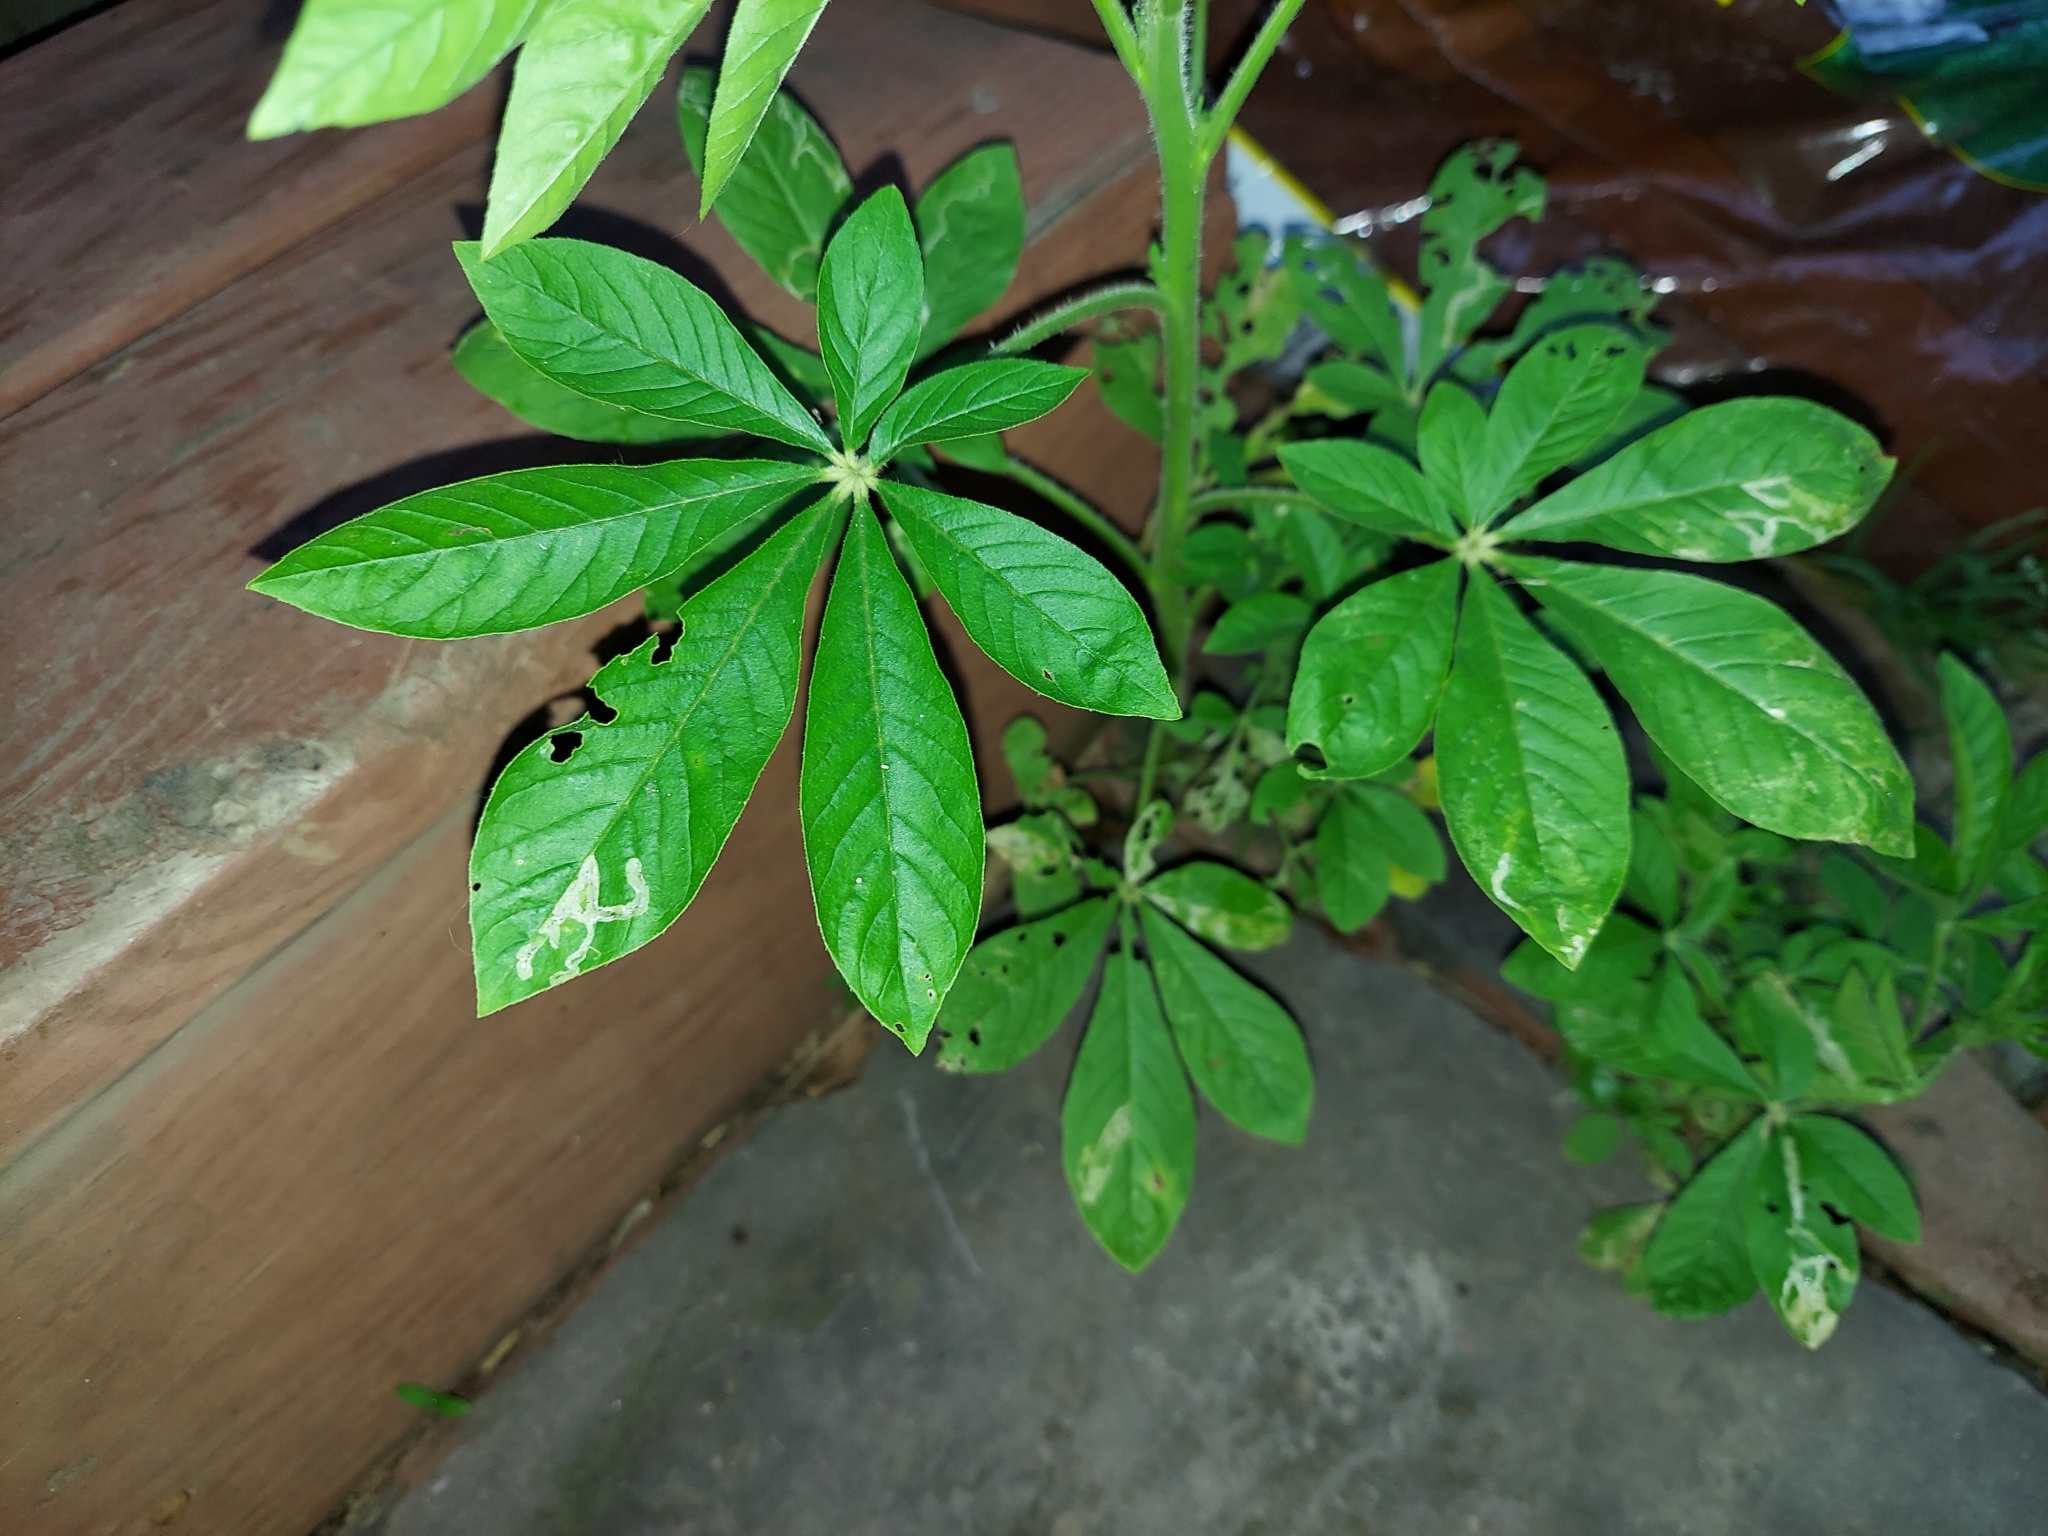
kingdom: Plantae
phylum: Tracheophyta
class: Magnoliopsida
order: Brassicales
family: Cleomaceae
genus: Tarenaya
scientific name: Tarenaya houtteana
